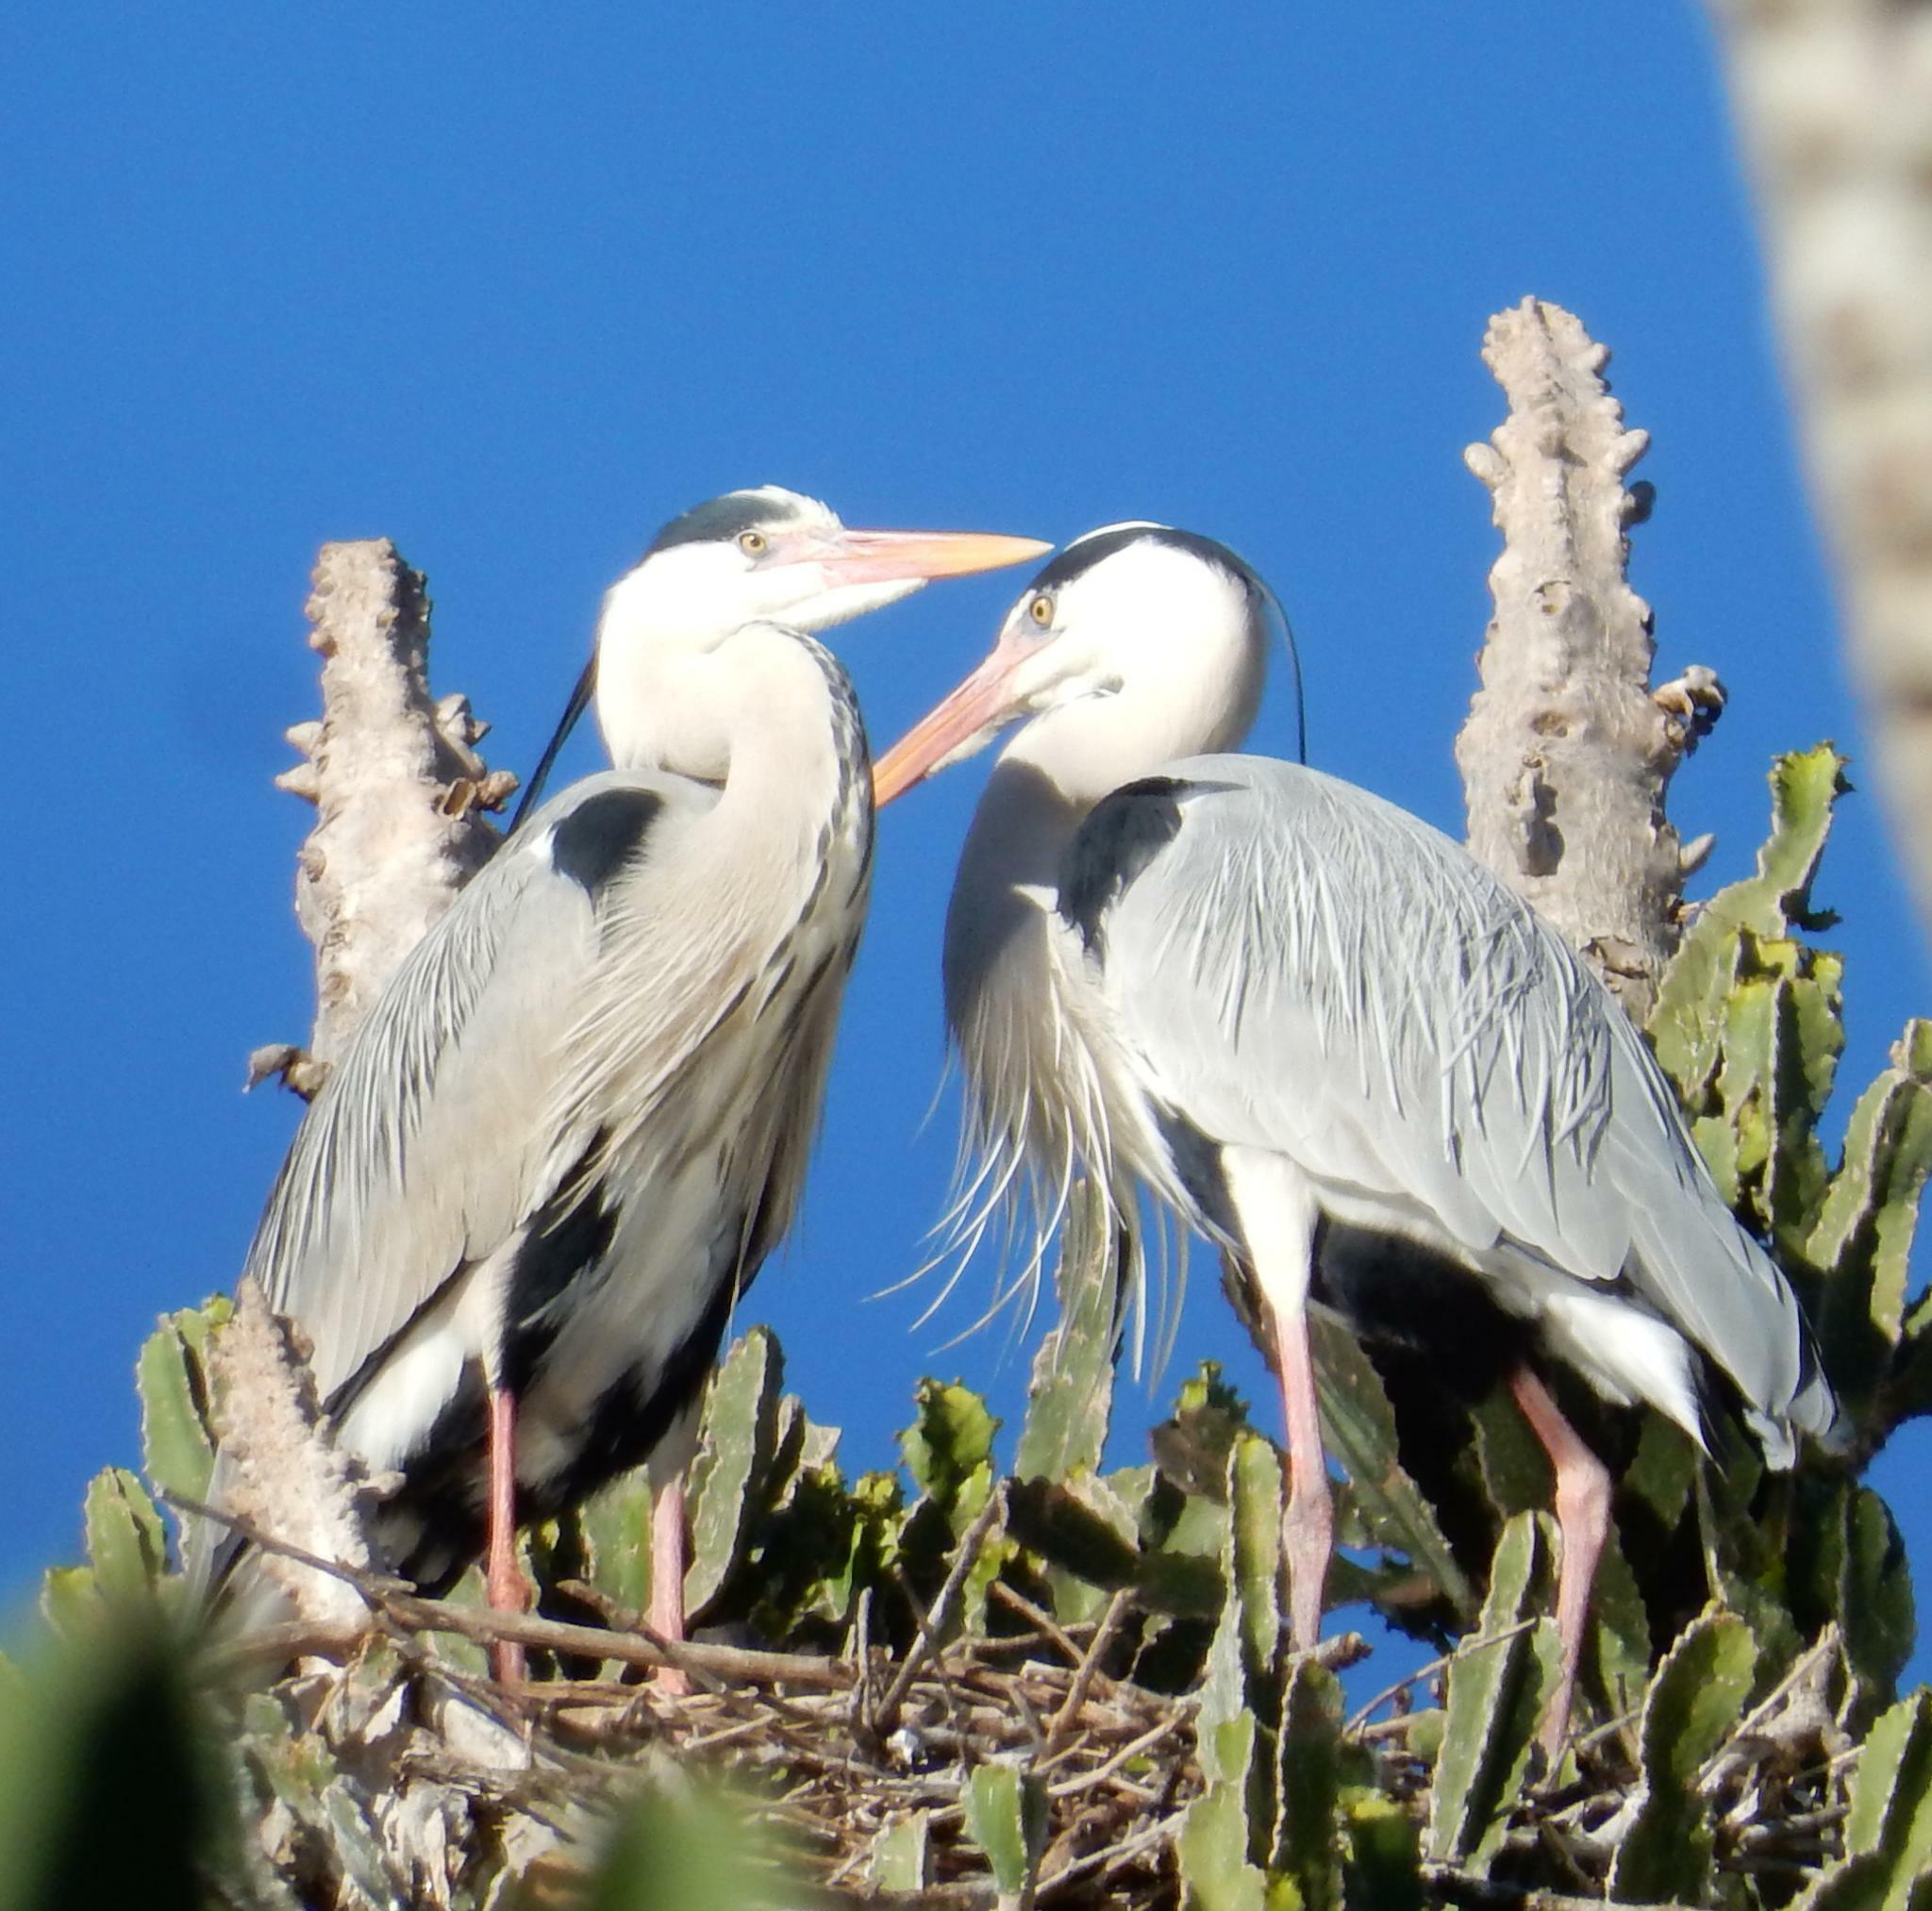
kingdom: Animalia
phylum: Chordata
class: Aves
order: Pelecaniformes
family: Ardeidae
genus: Ardea
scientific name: Ardea cinerea
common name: Grey heron
